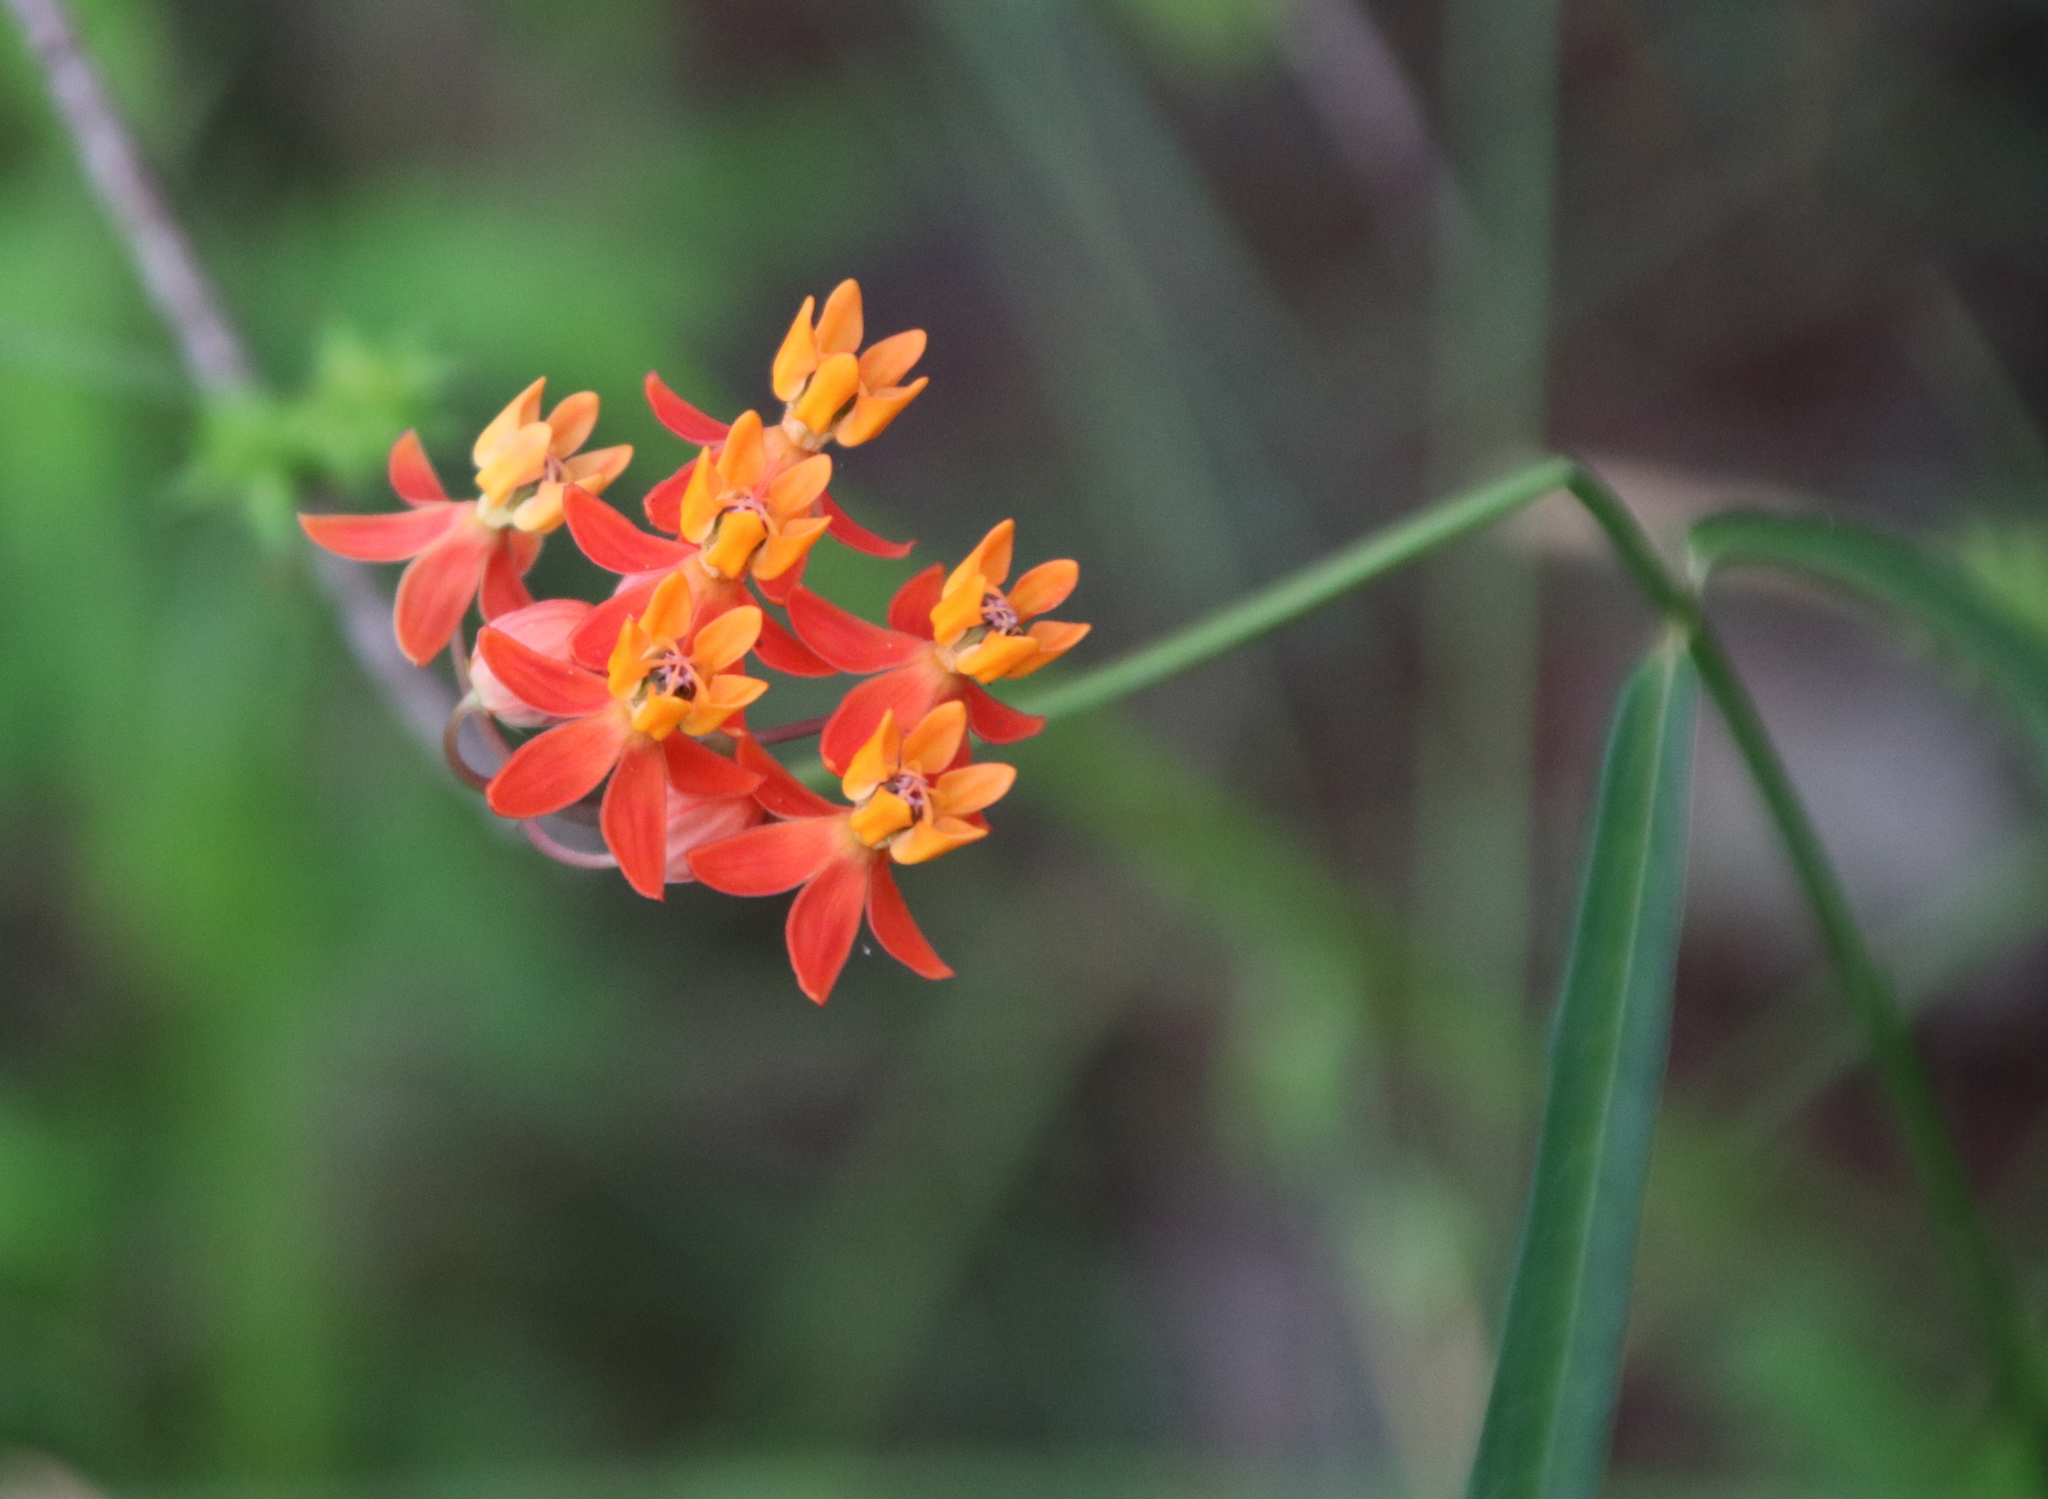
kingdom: Plantae
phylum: Tracheophyta
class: Magnoliopsida
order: Gentianales
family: Apocynaceae
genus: Asclepias
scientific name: Asclepias lanceolata
